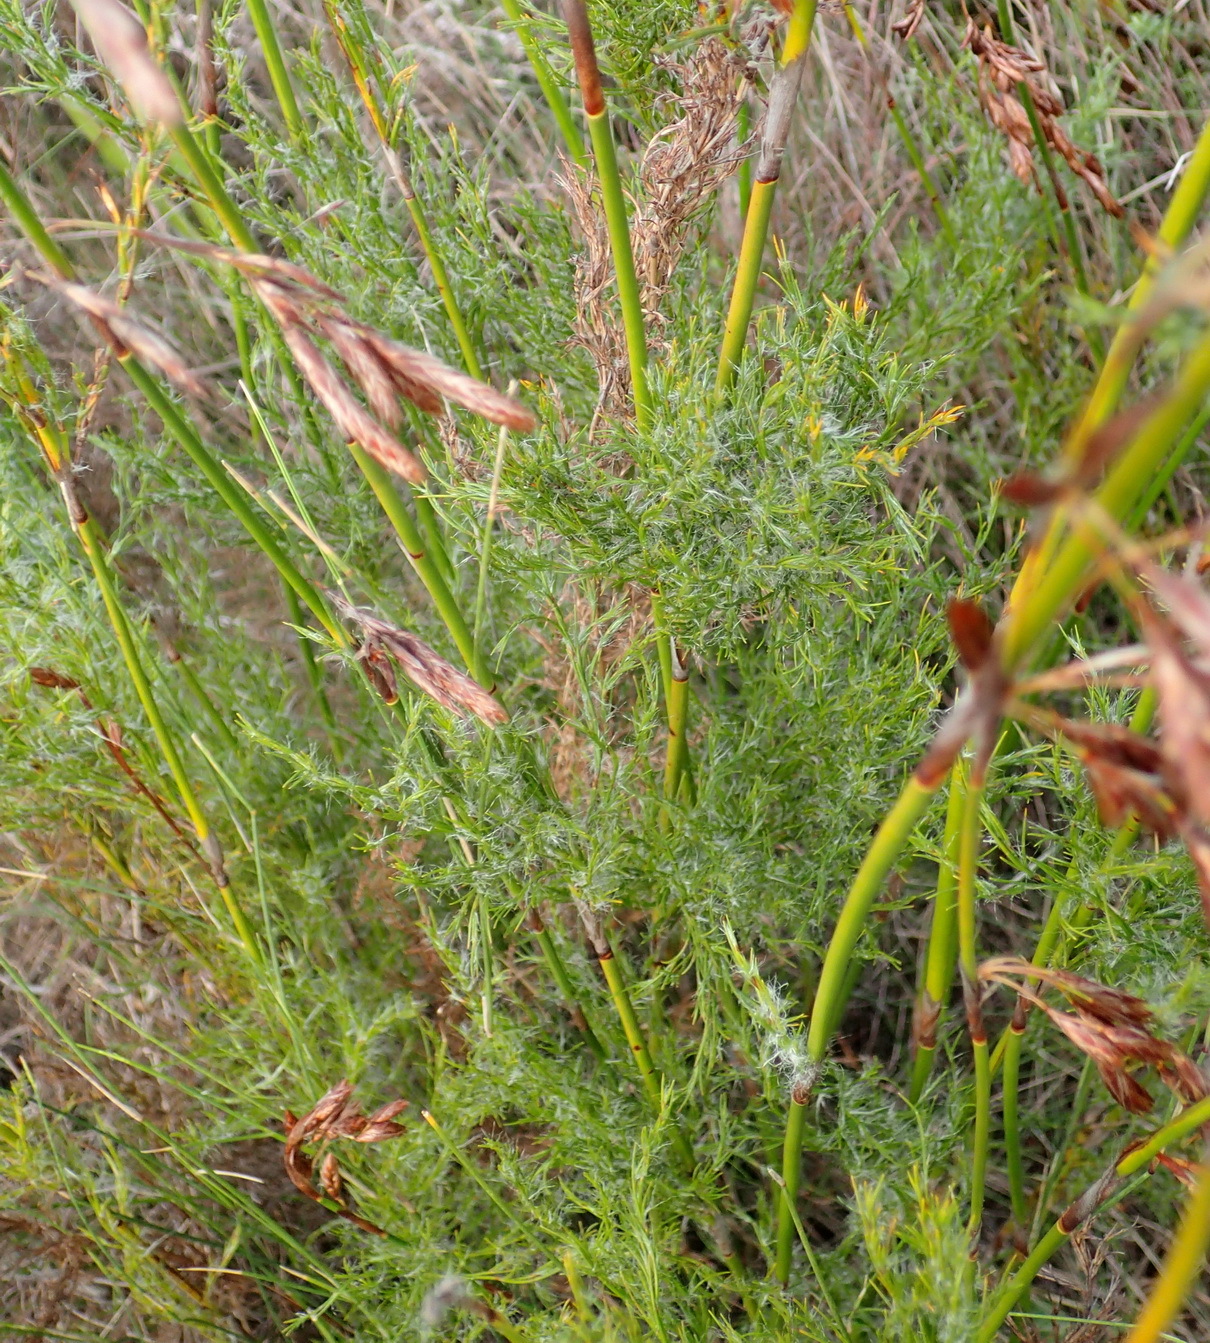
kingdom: Plantae
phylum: Tracheophyta
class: Liliopsida
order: Poales
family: Restionaceae
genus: Thamnochortus
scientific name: Thamnochortus glaber
